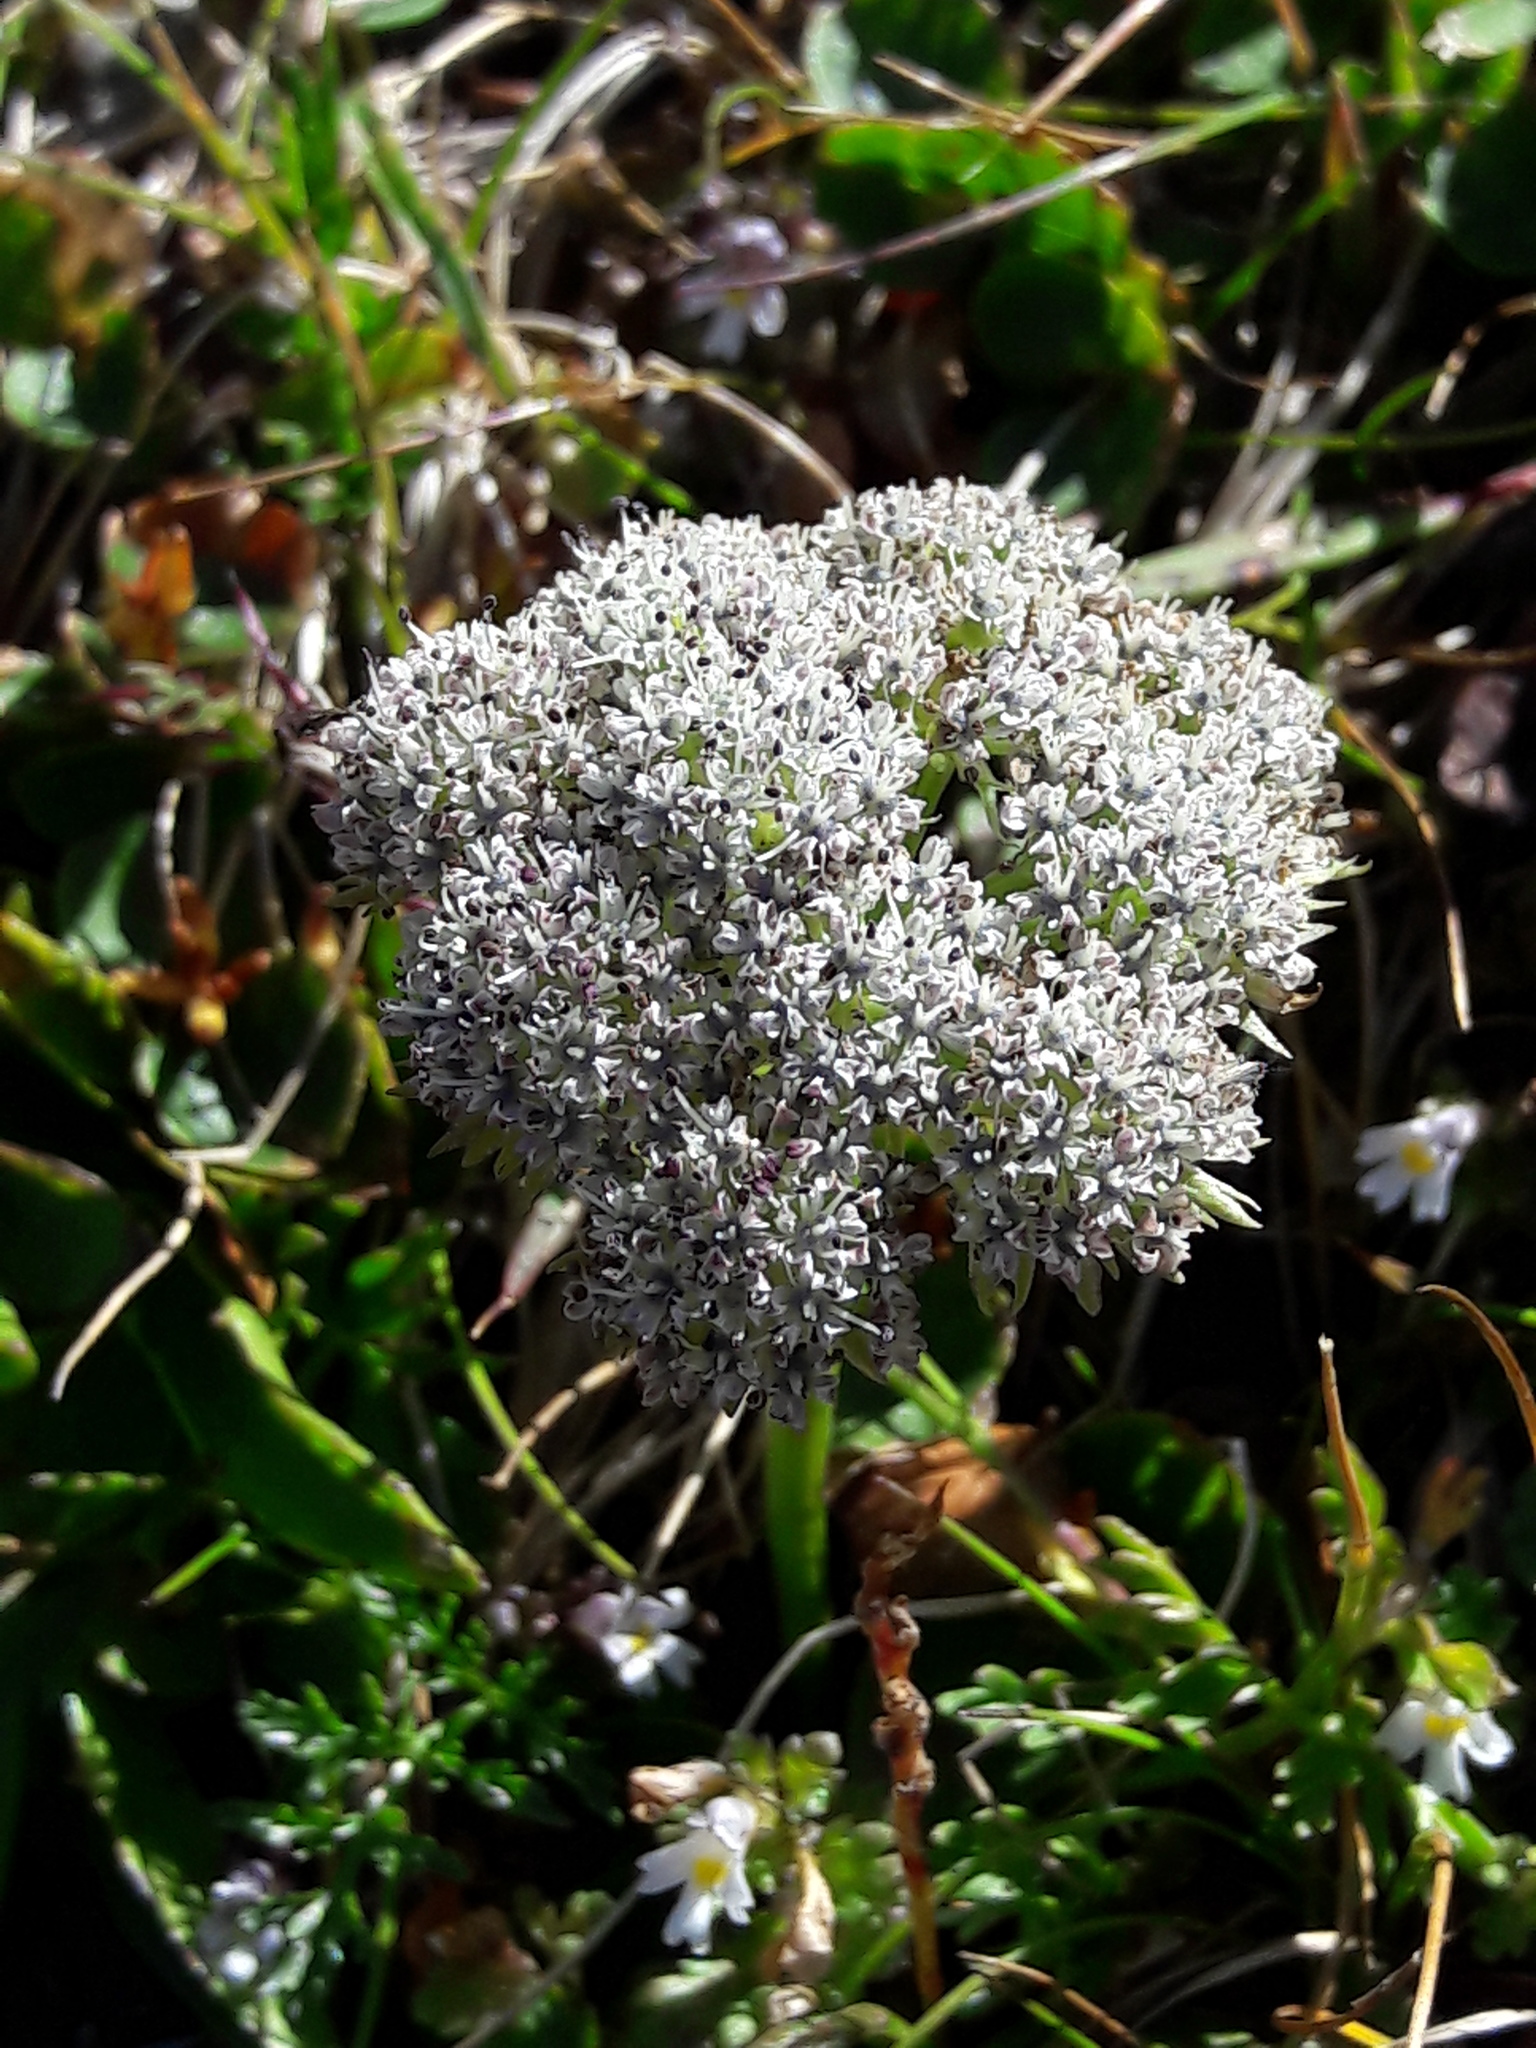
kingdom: Plantae
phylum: Tracheophyta
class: Magnoliopsida
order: Apiales
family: Apiaceae
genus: Pachypleurum
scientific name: Pachypleurum mutellinoides
